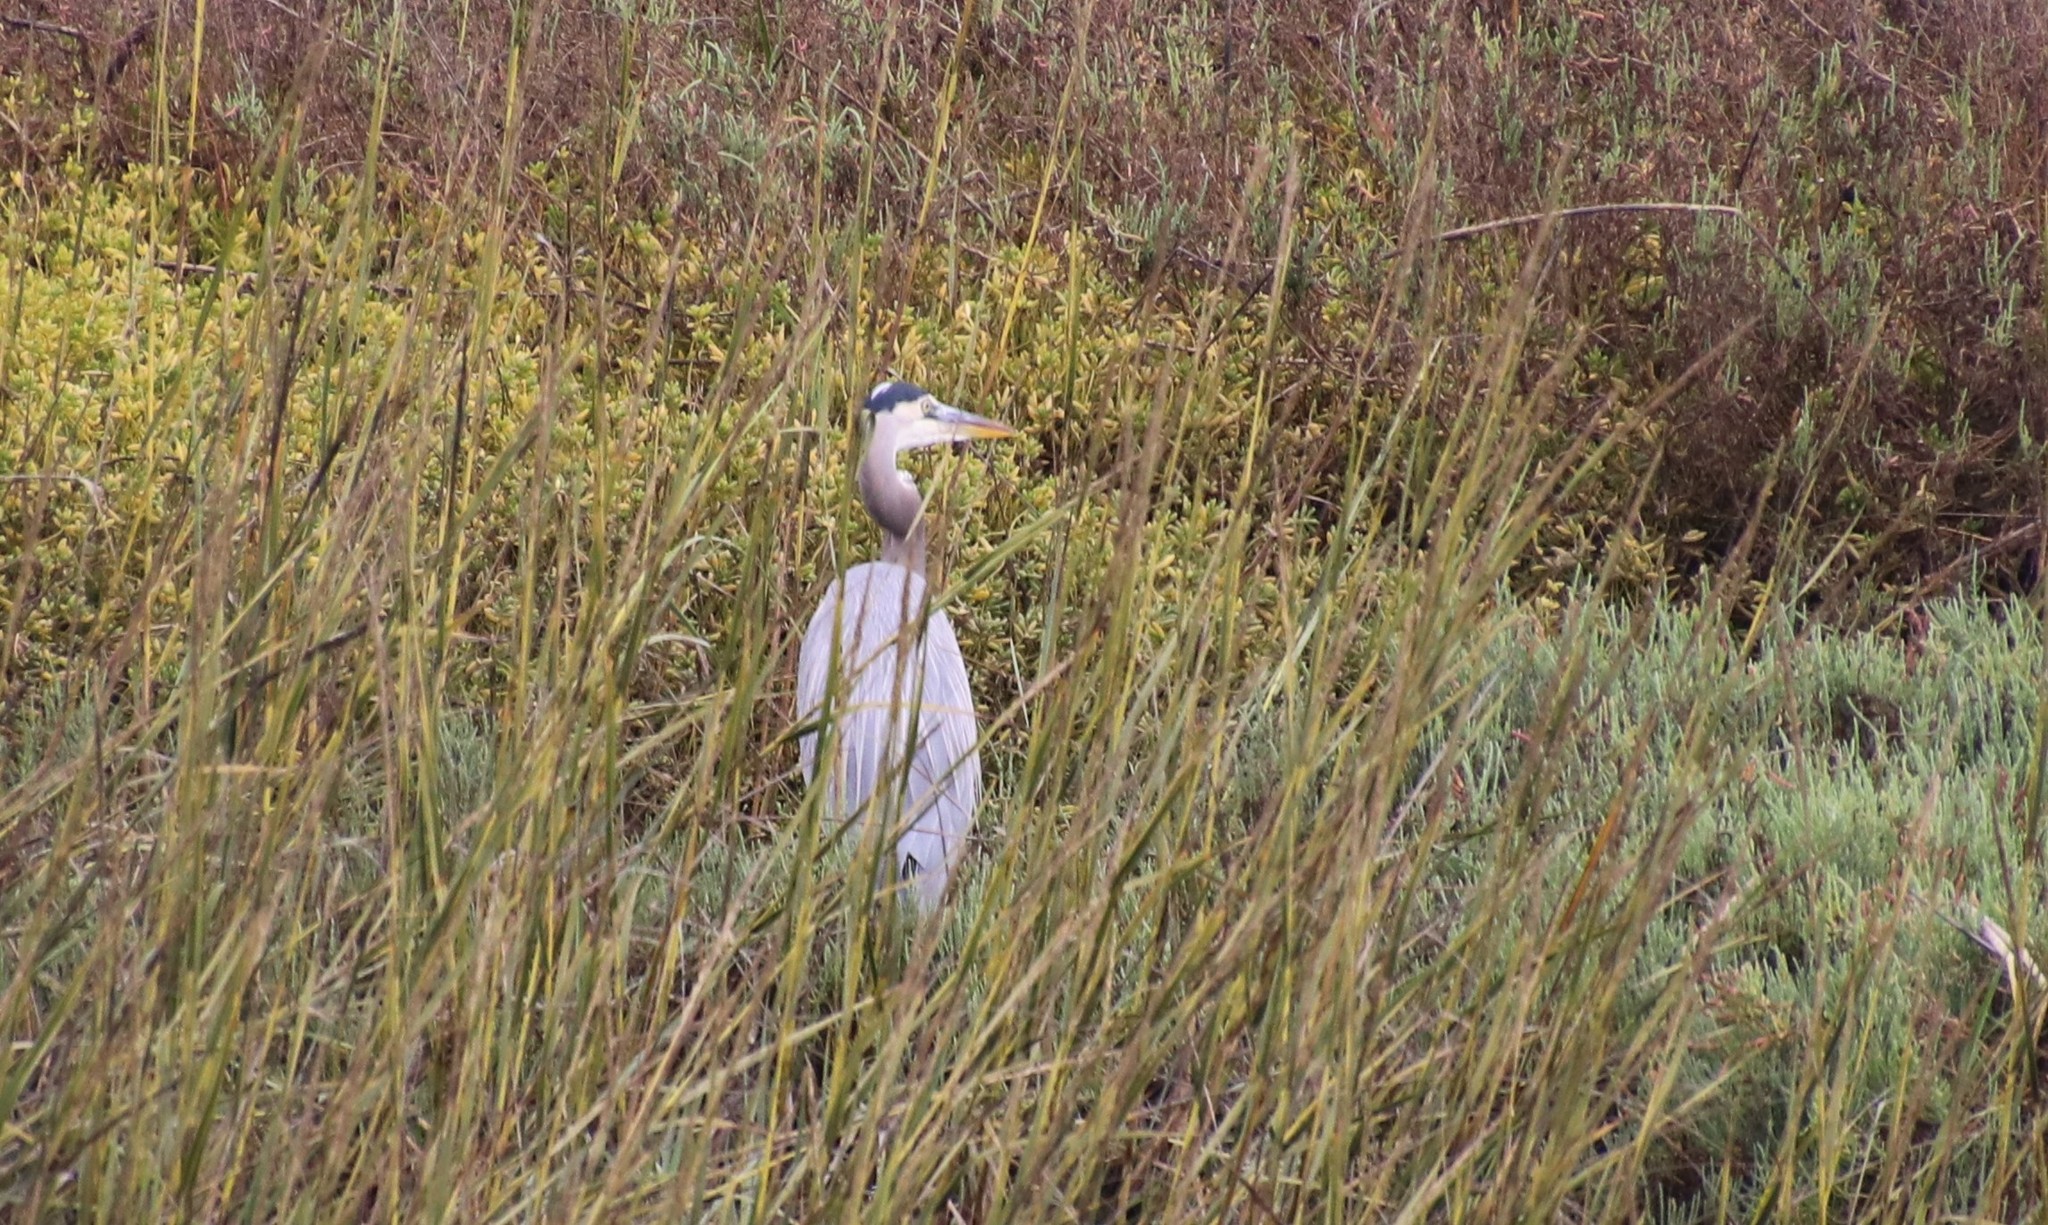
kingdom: Animalia
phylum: Chordata
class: Aves
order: Pelecaniformes
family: Ardeidae
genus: Ardea
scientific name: Ardea herodias
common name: Great blue heron
